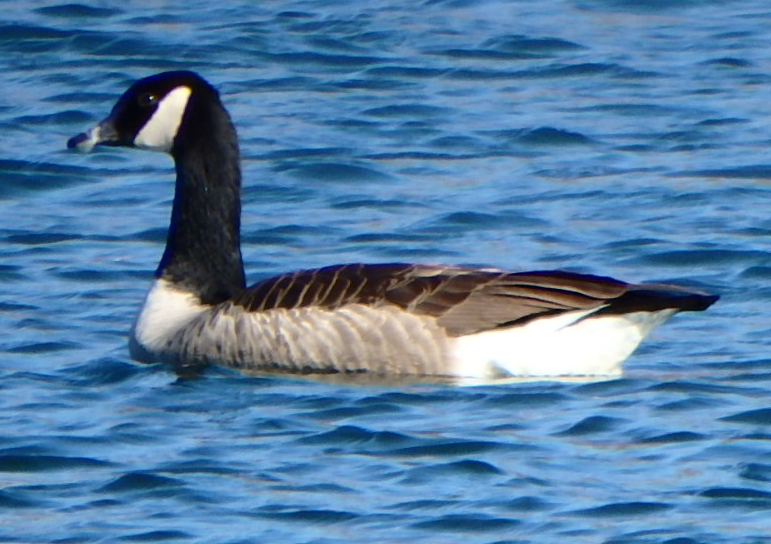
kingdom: Animalia
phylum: Chordata
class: Aves
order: Anseriformes
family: Anatidae
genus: Branta
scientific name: Branta canadensis
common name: Canada goose
